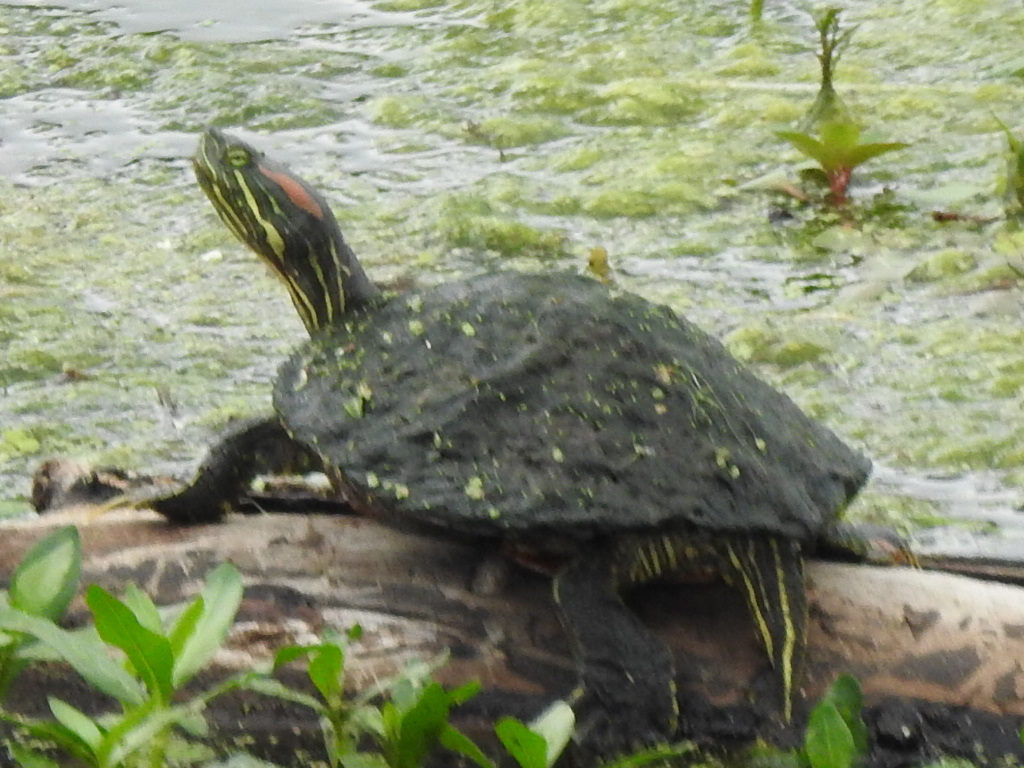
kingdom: Animalia
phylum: Chordata
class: Testudines
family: Emydidae
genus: Trachemys
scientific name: Trachemys scripta
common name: Slider
